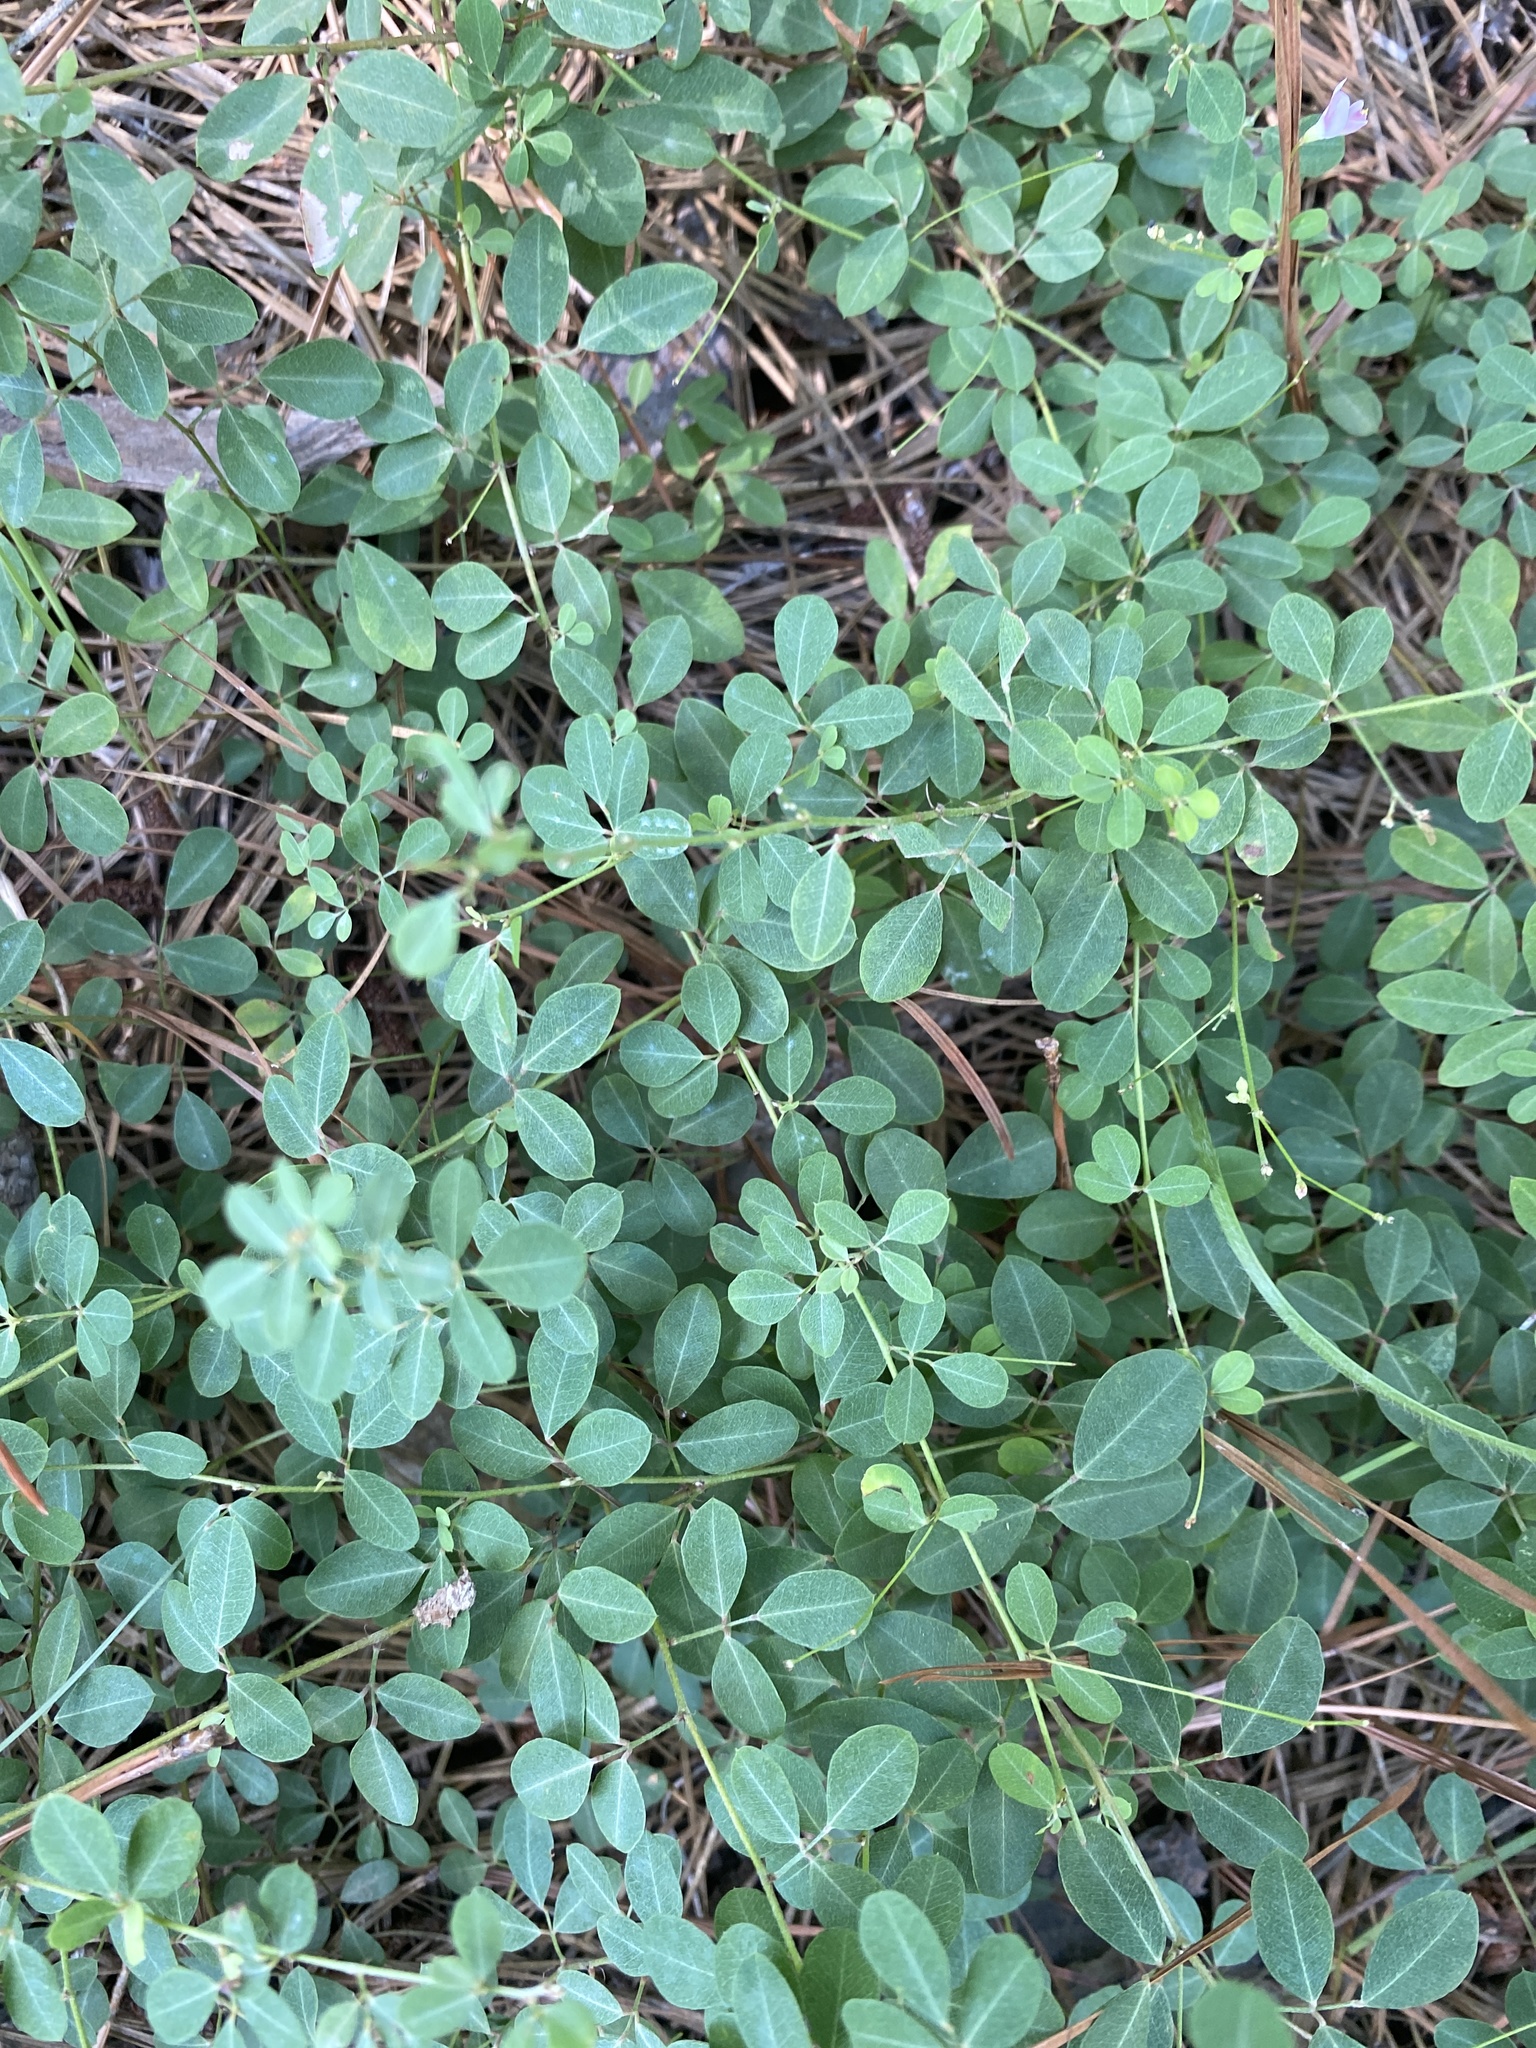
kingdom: Plantae
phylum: Tracheophyta
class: Magnoliopsida
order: Fabales
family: Fabaceae
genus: Lespedeza
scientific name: Lespedeza repens
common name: Creeping bush-clover
